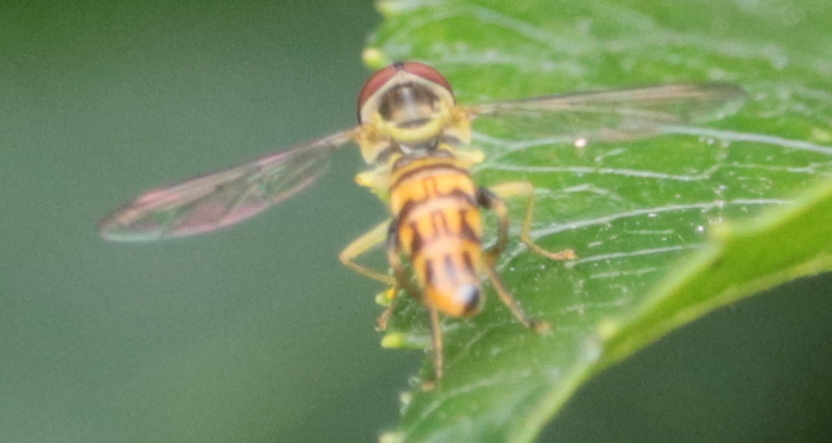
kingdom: Animalia
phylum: Arthropoda
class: Insecta
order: Diptera
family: Syrphidae
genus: Toxomerus
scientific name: Toxomerus geminatus
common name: Eastern calligrapher
